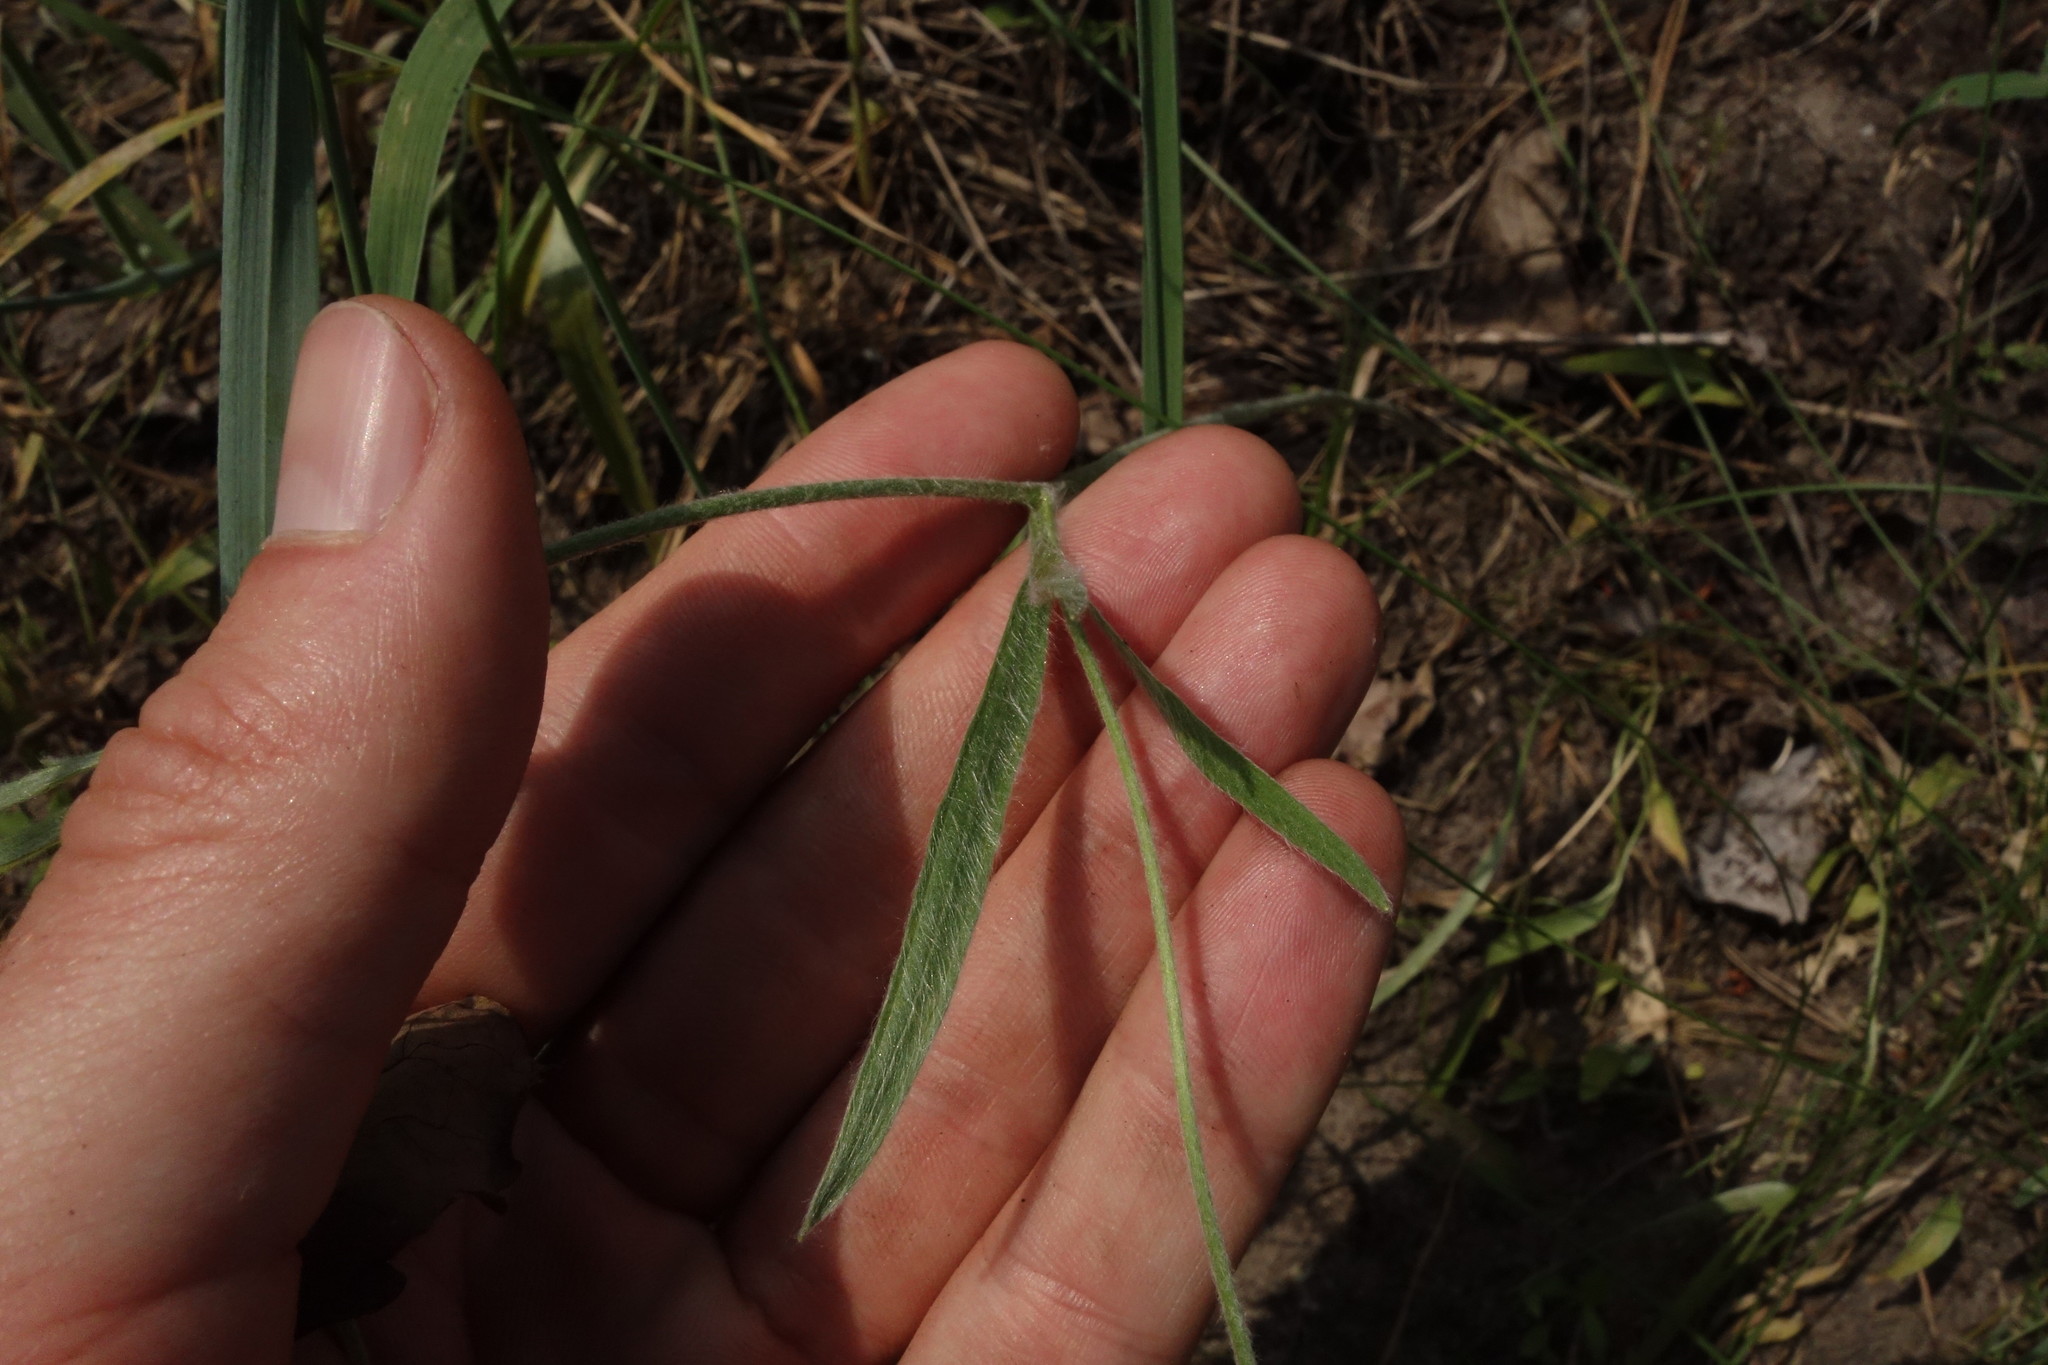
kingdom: Plantae
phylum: Tracheophyta
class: Magnoliopsida
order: Ranunculales
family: Ranunculaceae
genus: Ranunculus
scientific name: Ranunculus illyricus
